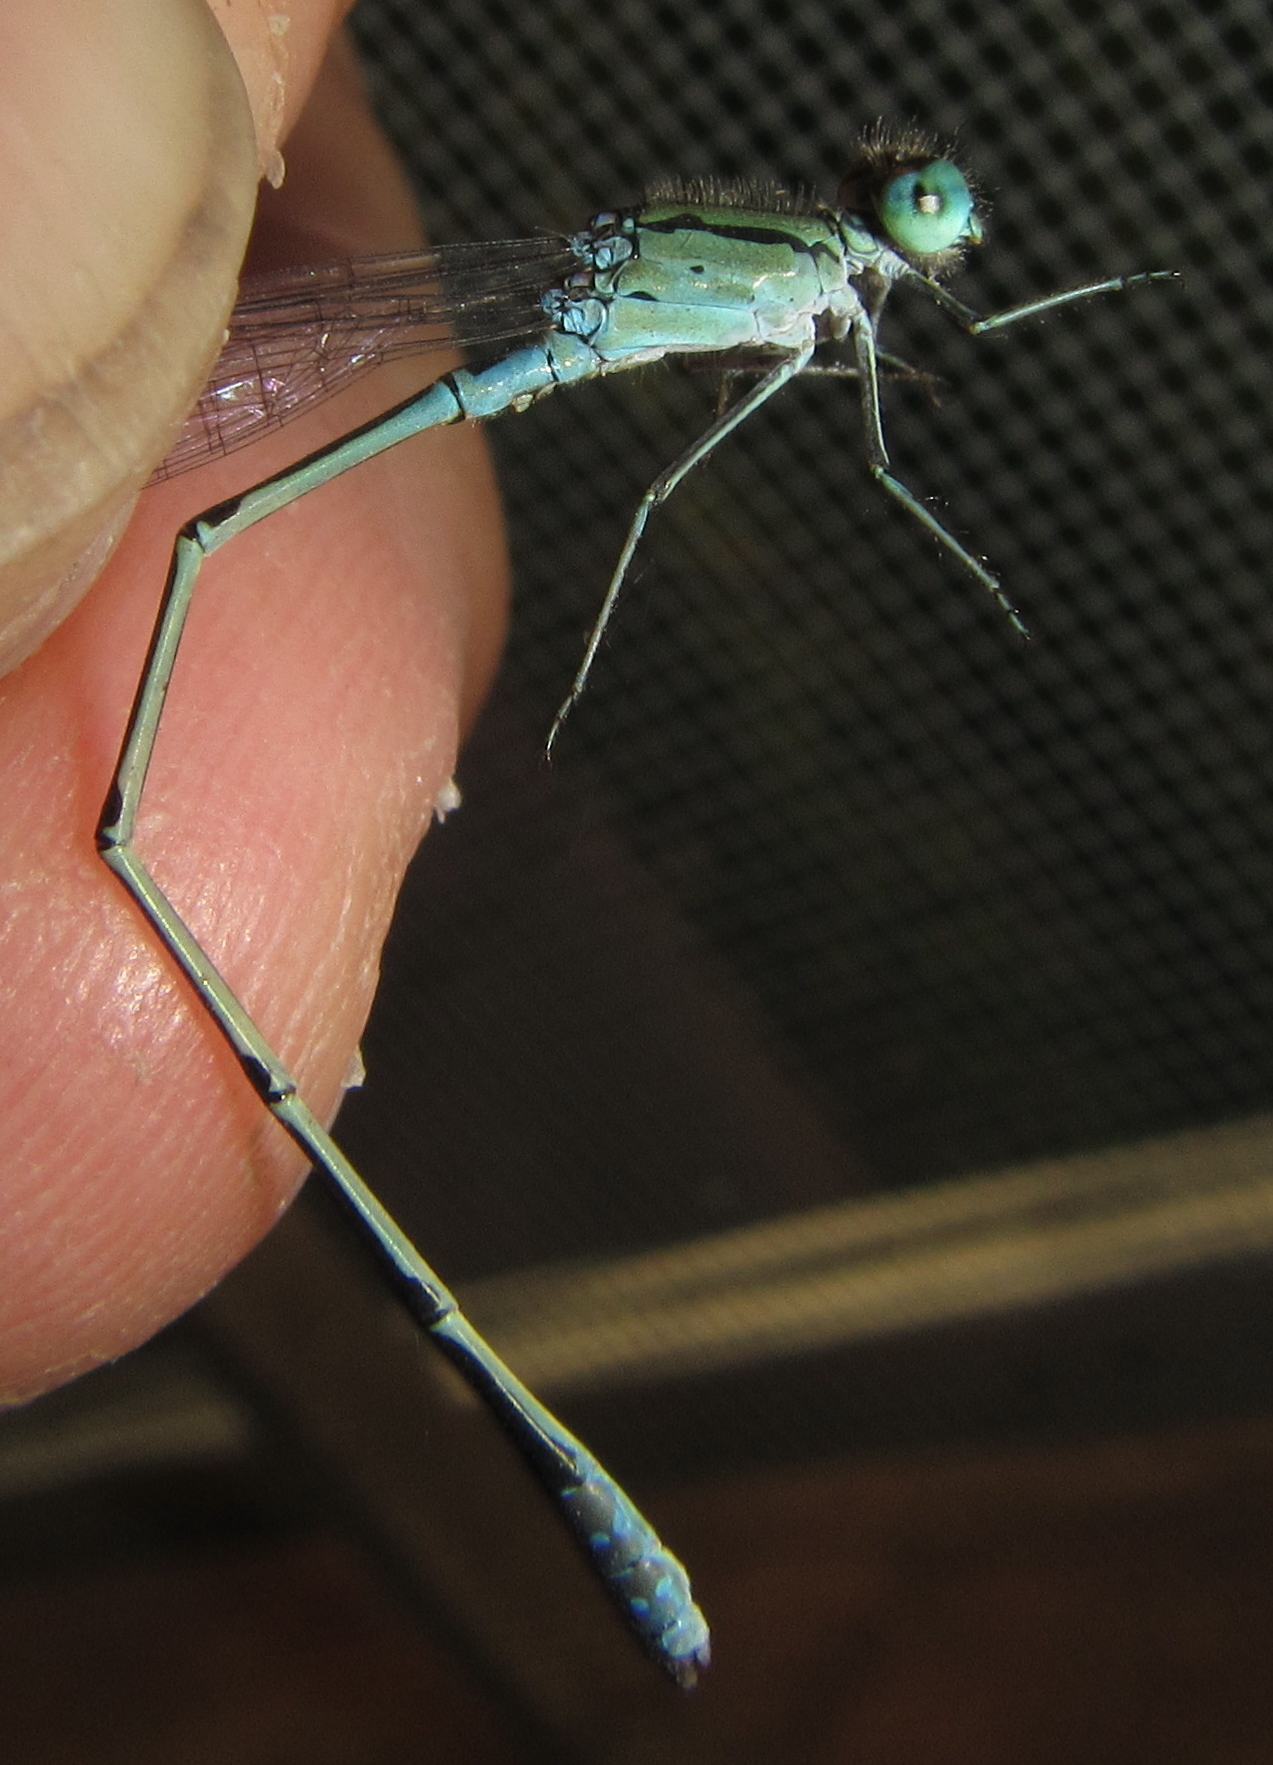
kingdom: Animalia
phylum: Arthropoda
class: Insecta
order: Odonata
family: Coenagrionidae
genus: Pseudagrion
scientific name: Pseudagrion coeleste
